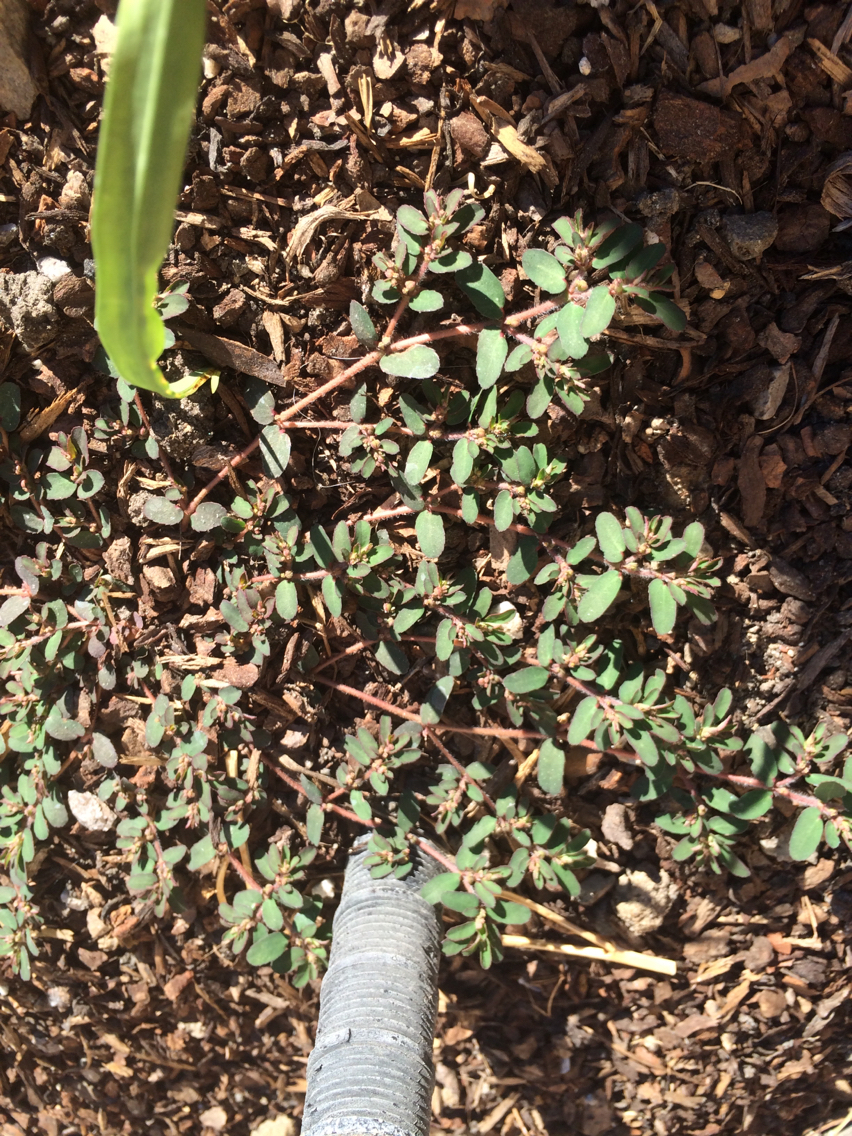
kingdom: Plantae
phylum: Tracheophyta
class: Magnoliopsida
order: Malpighiales
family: Euphorbiaceae
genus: Euphorbia
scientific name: Euphorbia maculata
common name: Spotted spurge
